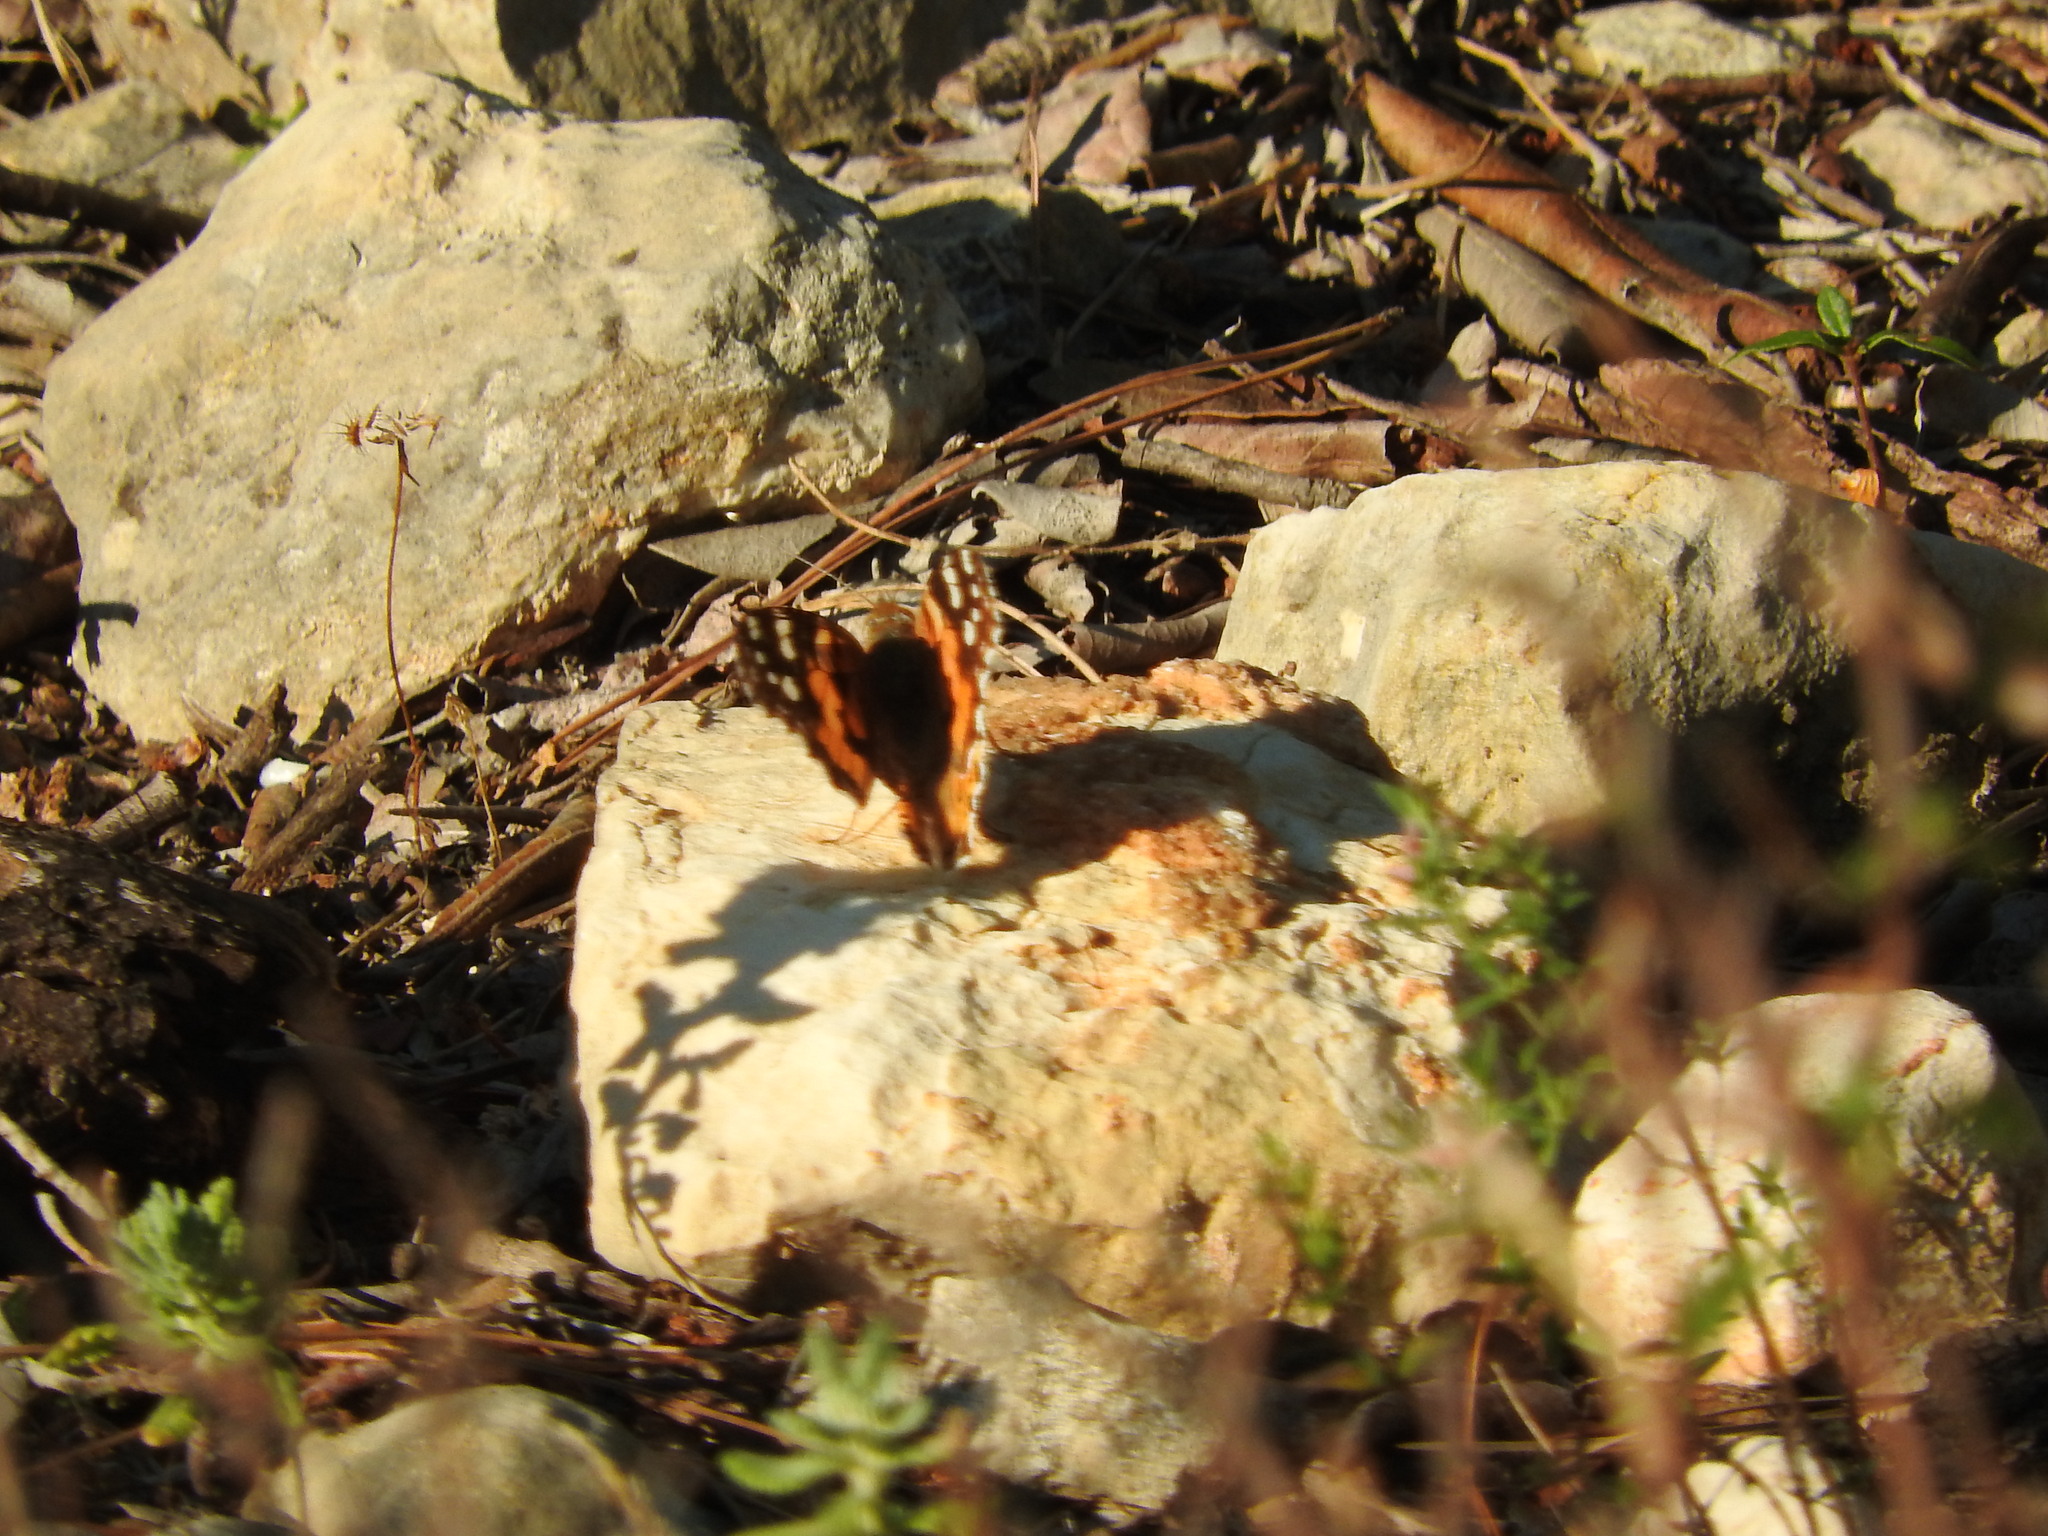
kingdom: Animalia
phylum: Arthropoda
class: Insecta
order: Lepidoptera
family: Nymphalidae
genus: Vanessa
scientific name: Vanessa atalanta
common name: Red admiral
